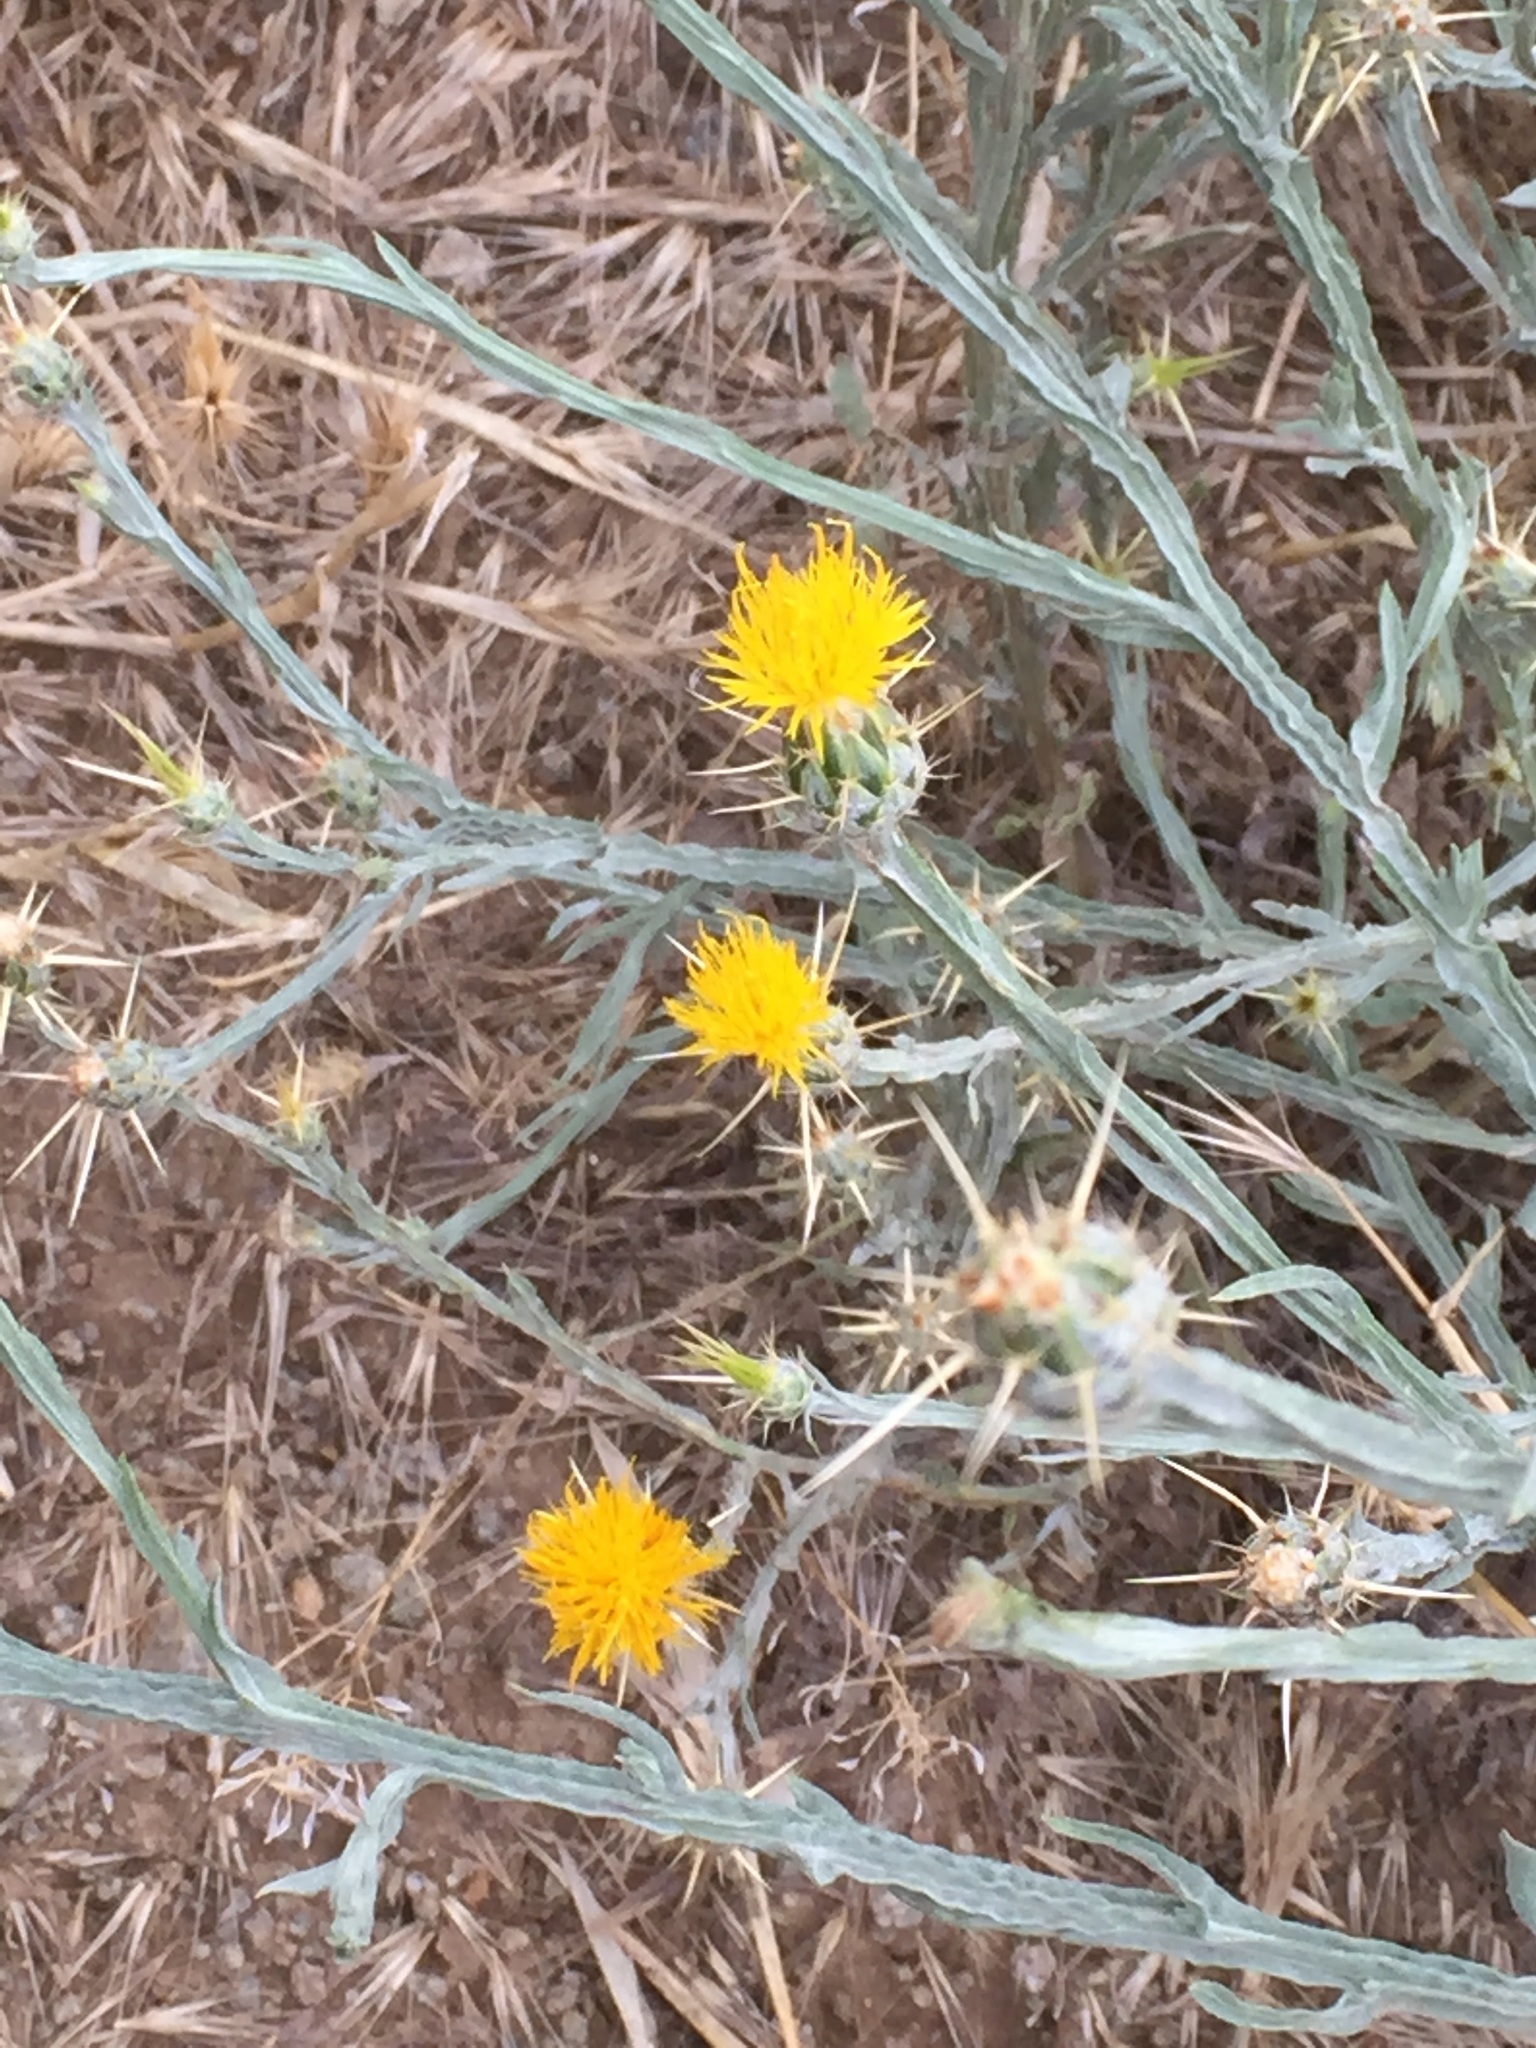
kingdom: Plantae
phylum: Tracheophyta
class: Magnoliopsida
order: Asterales
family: Asteraceae
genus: Centaurea
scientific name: Centaurea solstitialis
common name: Yellow star-thistle
